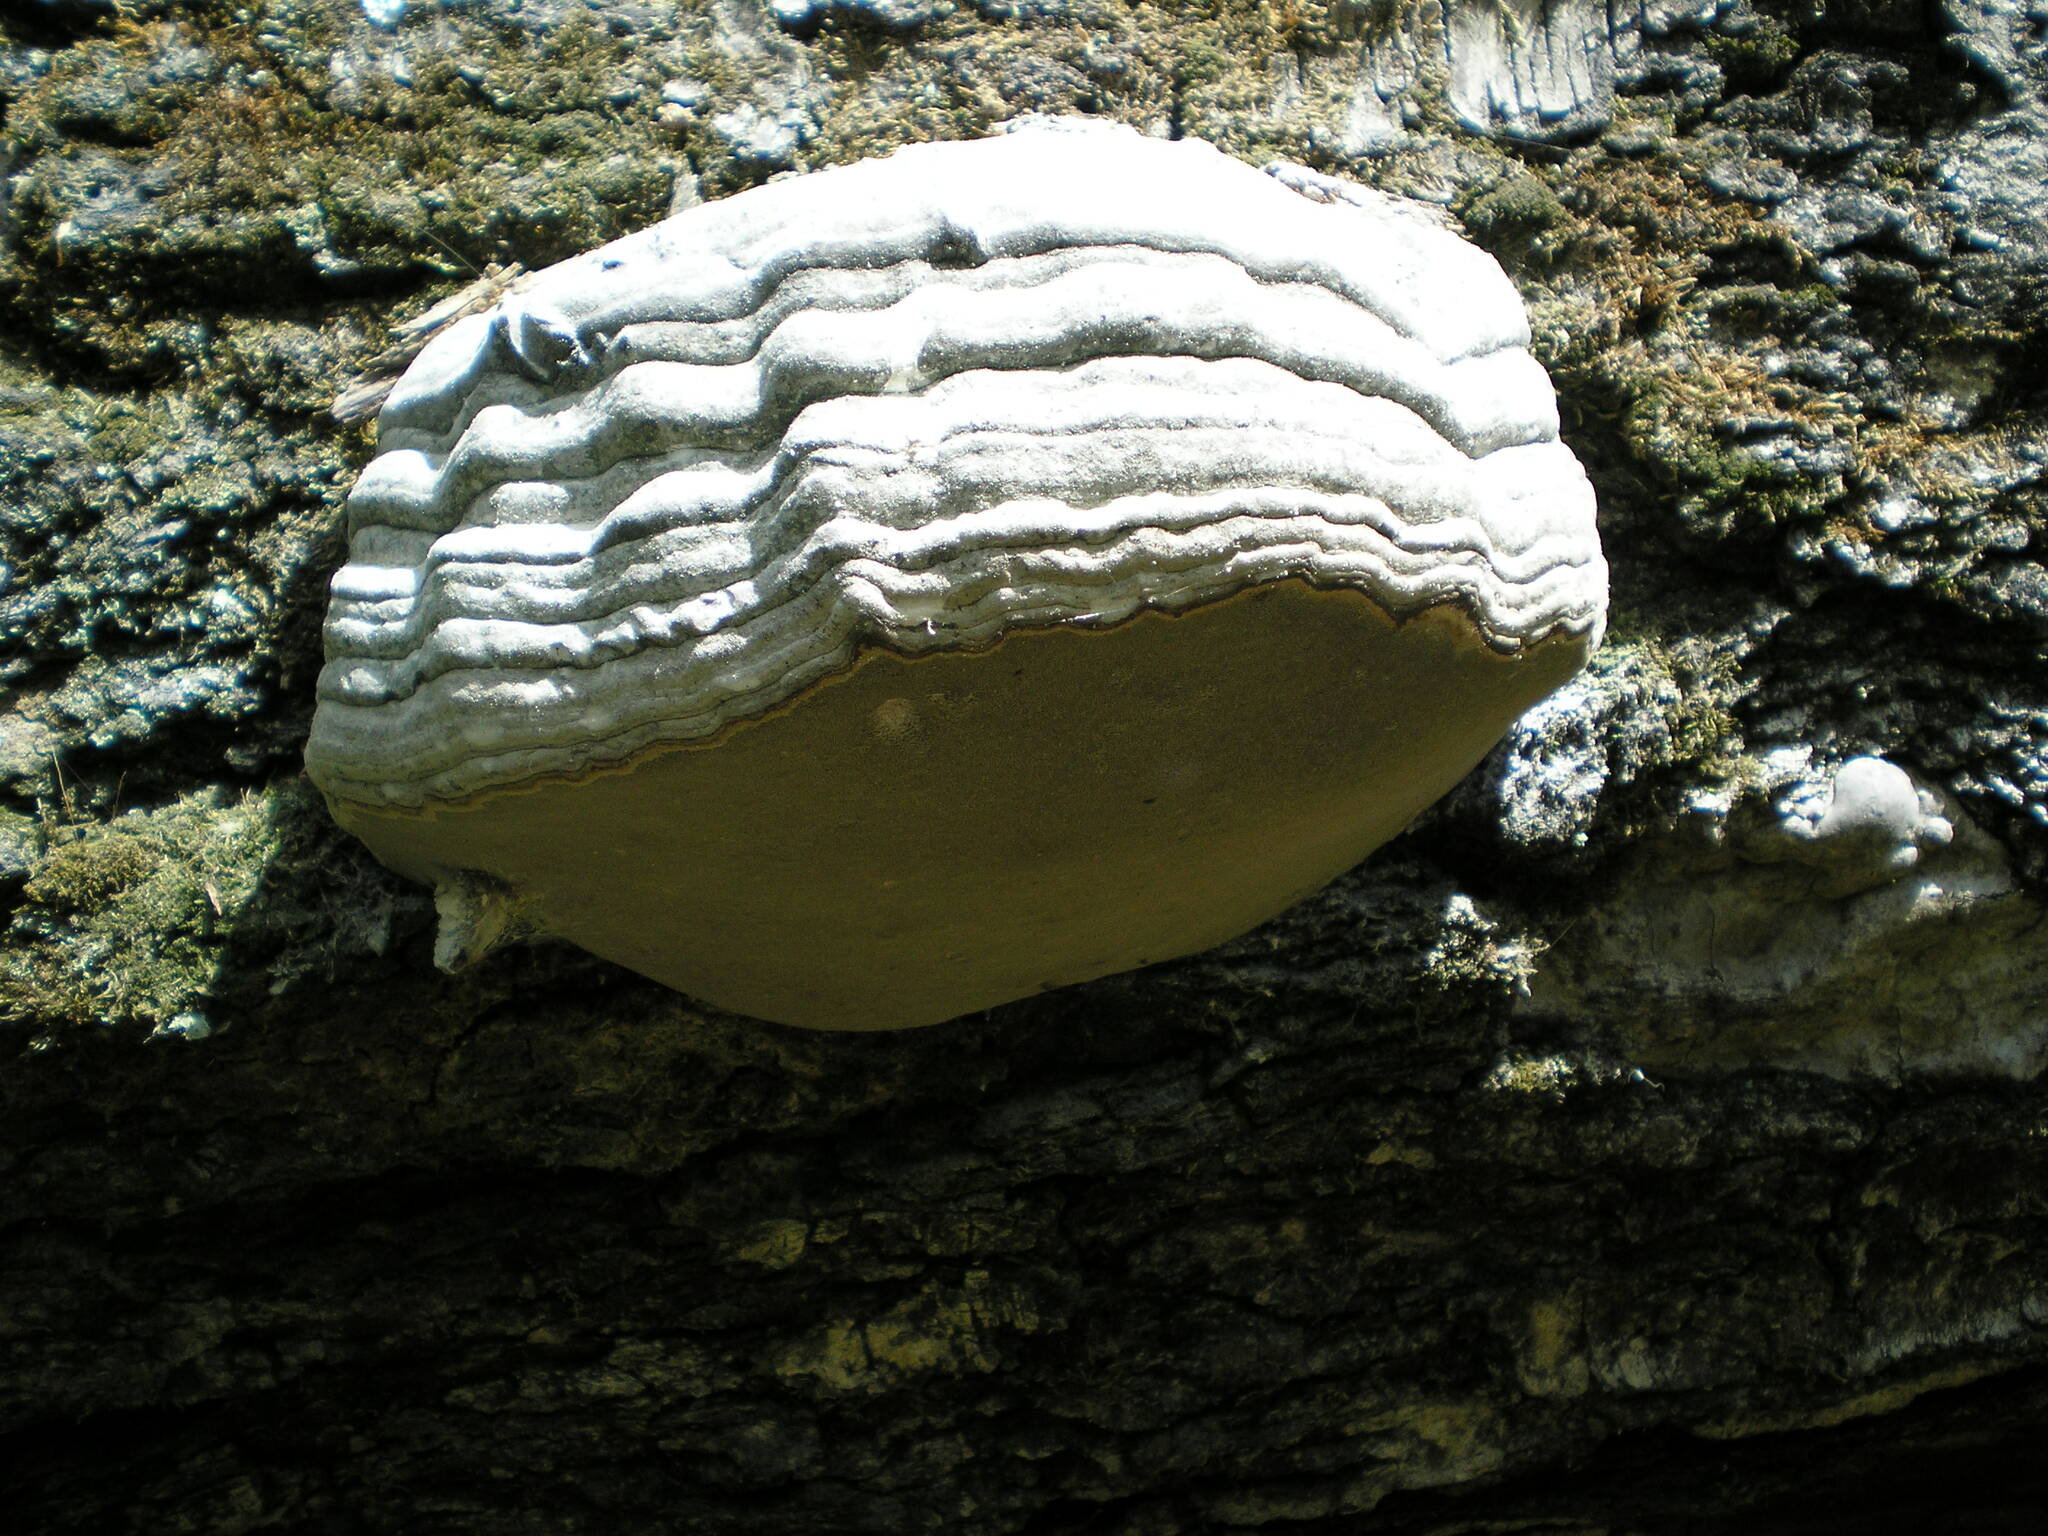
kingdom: Fungi
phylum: Basidiomycota
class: Agaricomycetes
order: Polyporales
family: Polyporaceae
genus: Fomes
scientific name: Fomes fomentarius
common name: Hoof fungus
